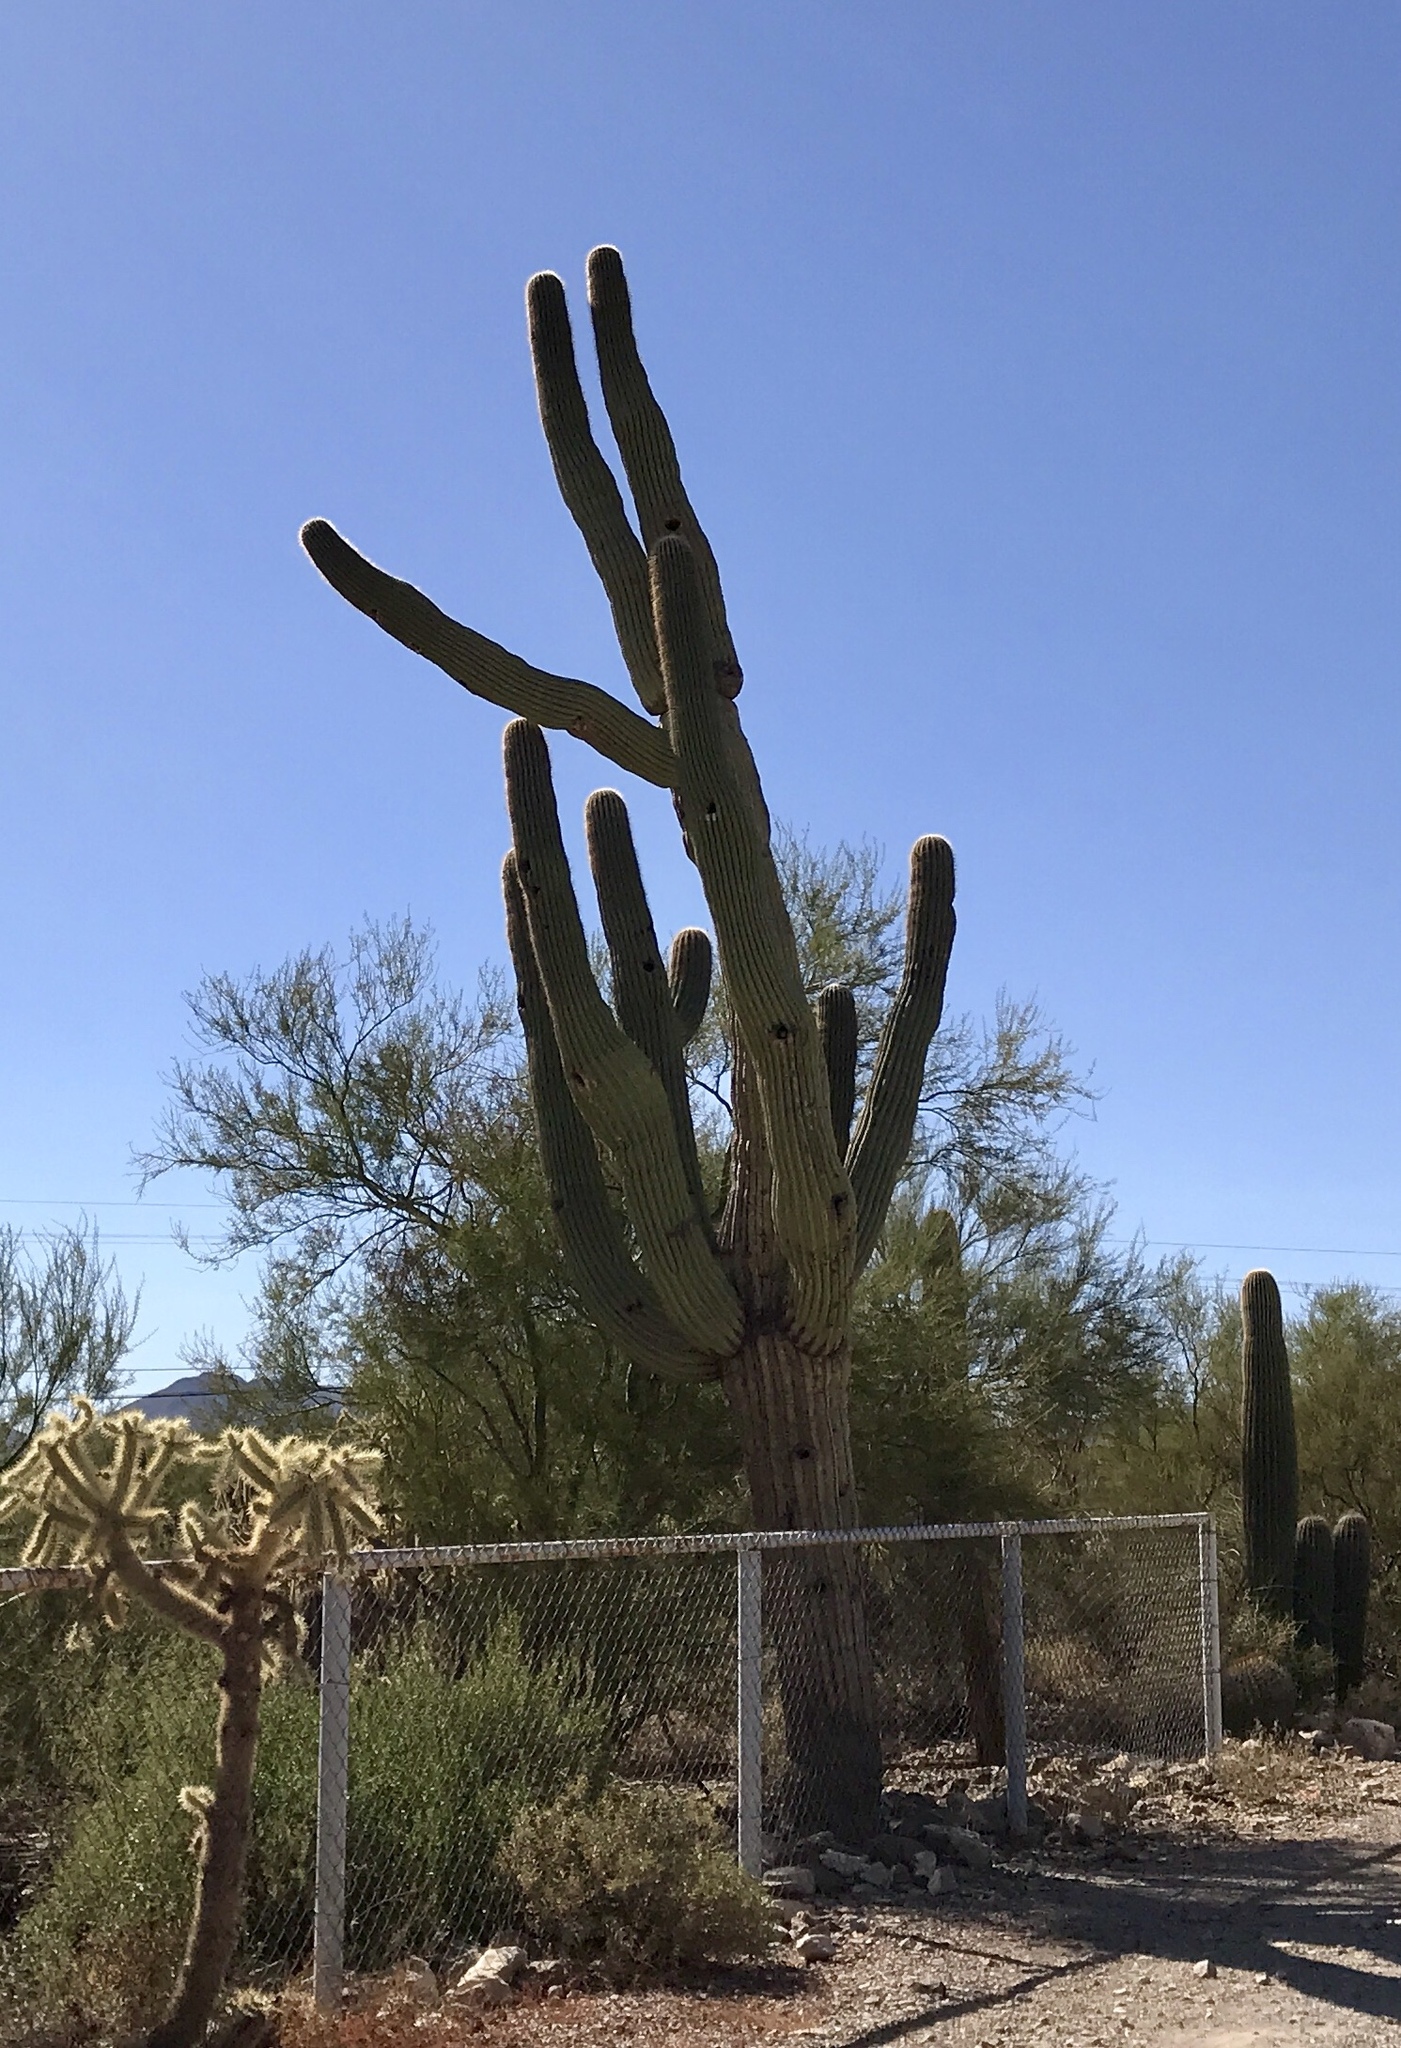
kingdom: Plantae
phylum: Tracheophyta
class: Magnoliopsida
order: Caryophyllales
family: Cactaceae
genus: Carnegiea
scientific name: Carnegiea gigantea
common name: Saguaro
